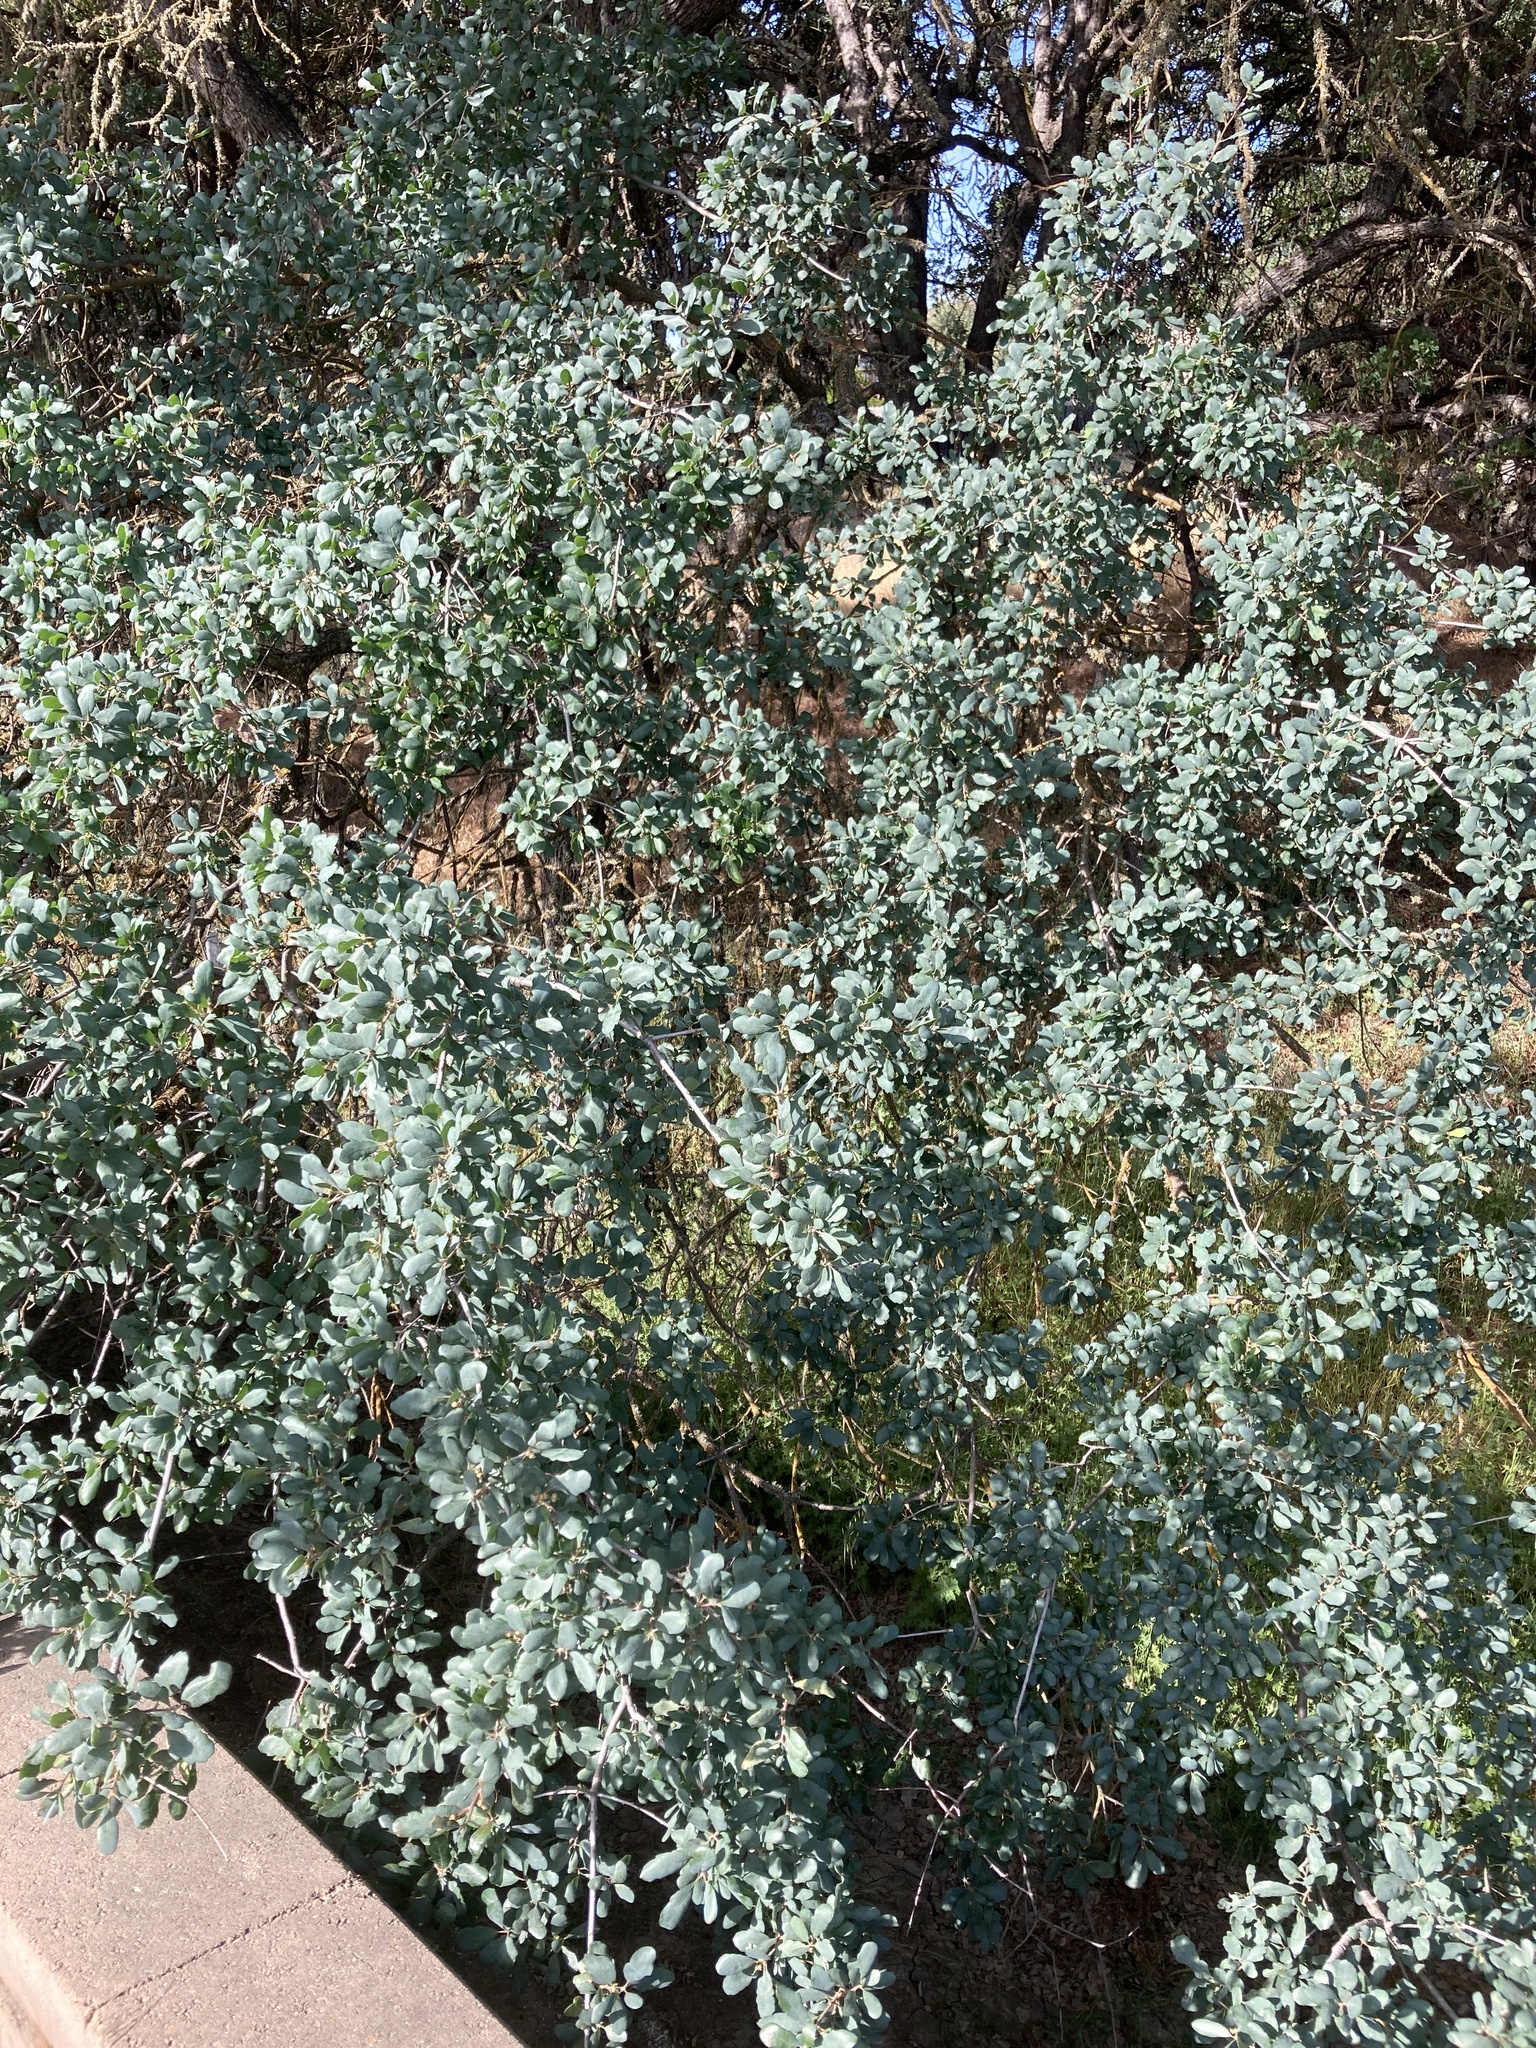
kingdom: Plantae
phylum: Tracheophyta
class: Magnoliopsida
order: Fagales
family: Fagaceae
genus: Quercus
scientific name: Quercus douglasii
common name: Blue oak
